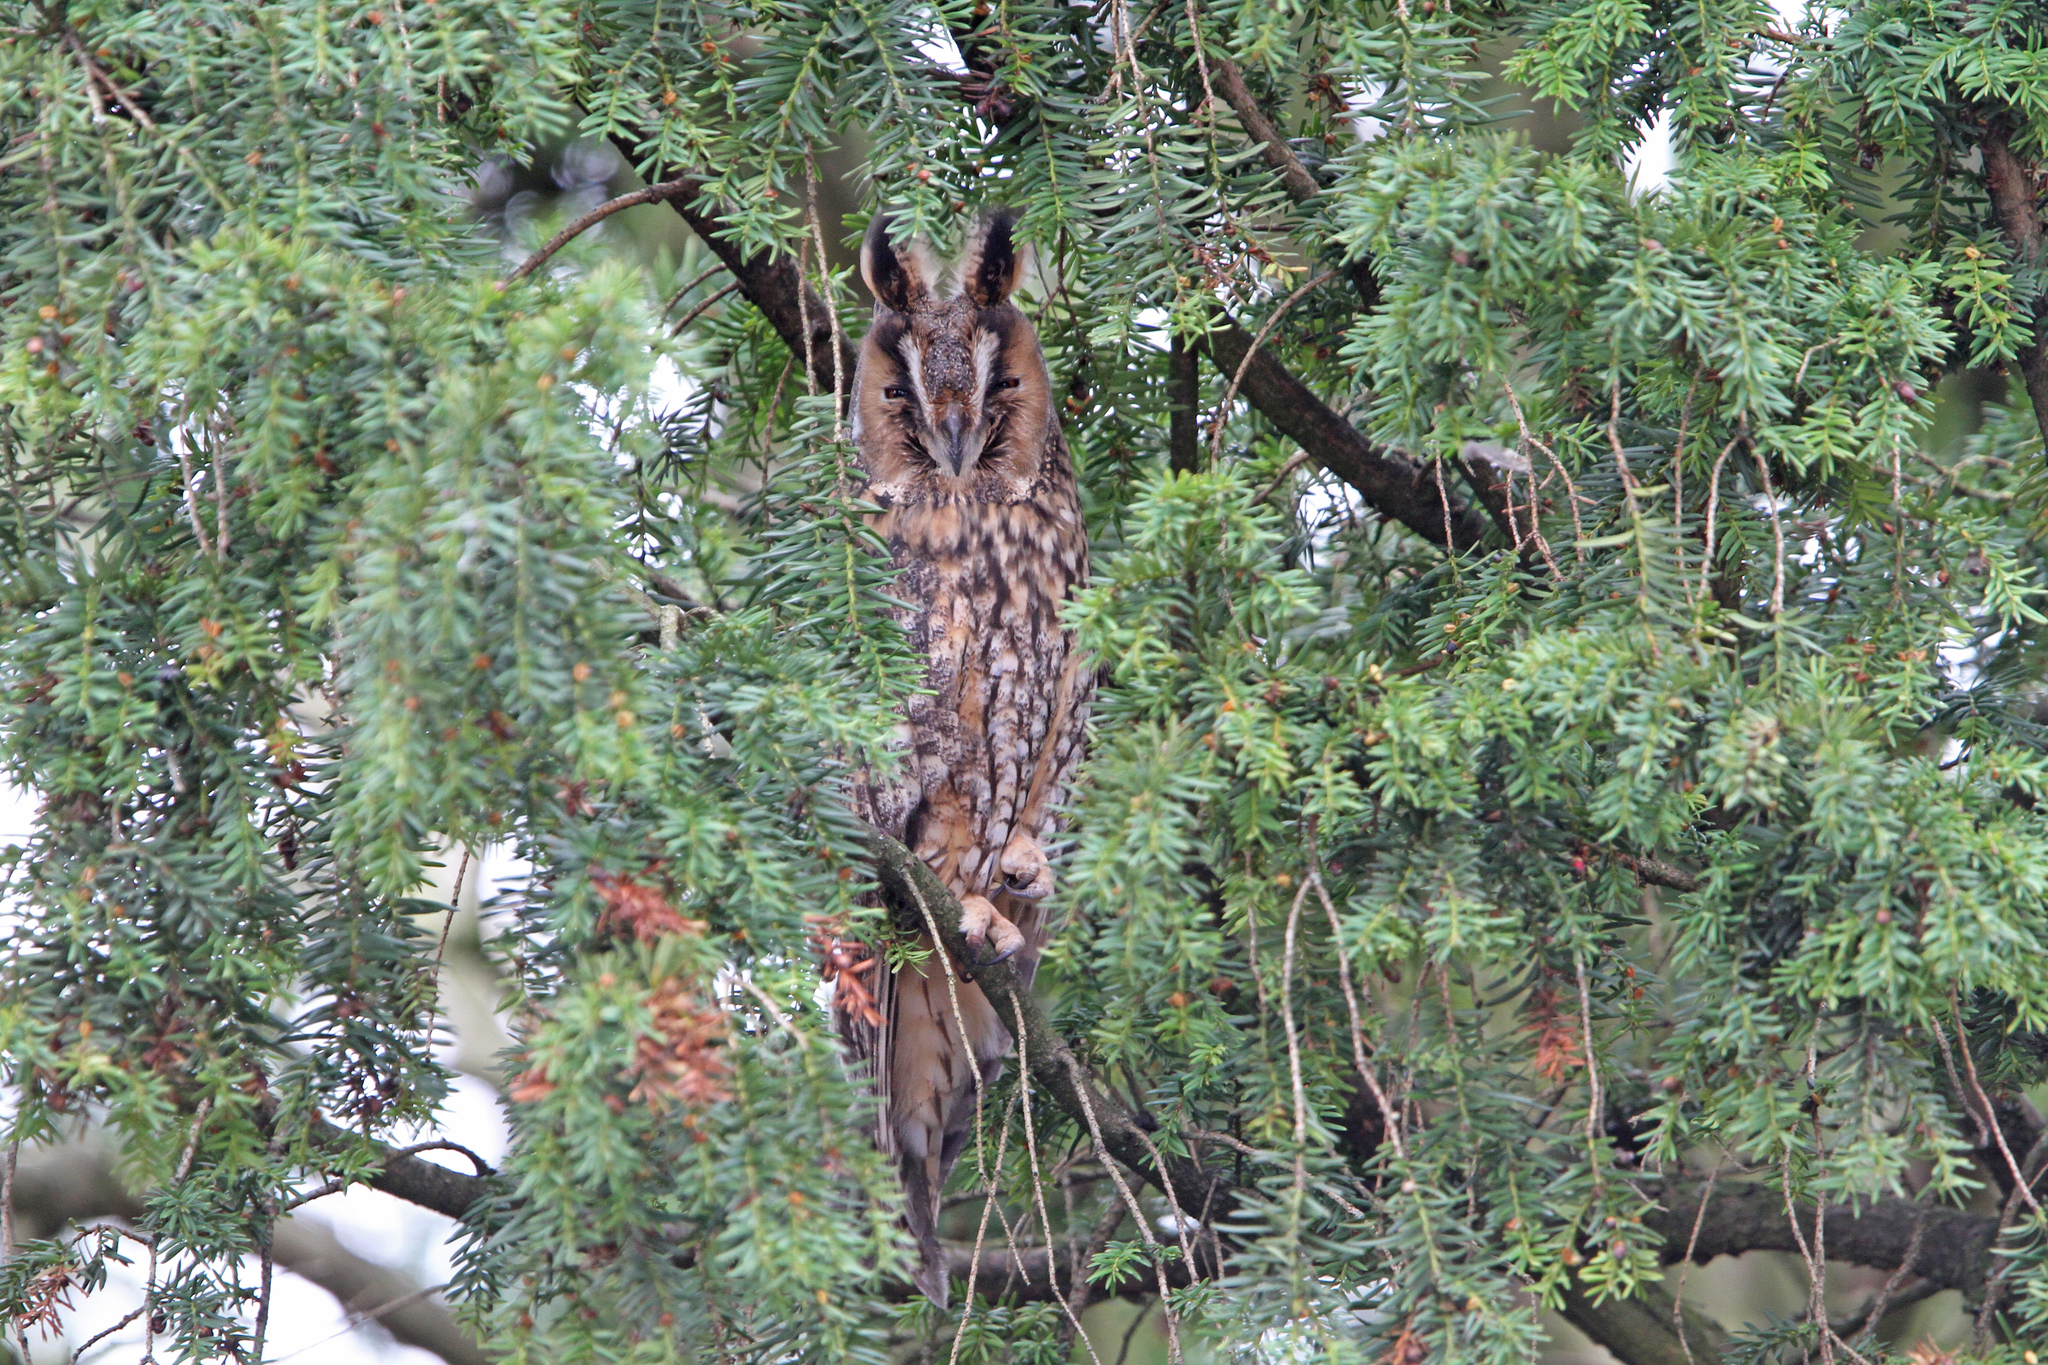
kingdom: Animalia
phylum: Chordata
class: Aves
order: Strigiformes
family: Strigidae
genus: Asio
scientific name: Asio otus
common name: Long-eared owl
